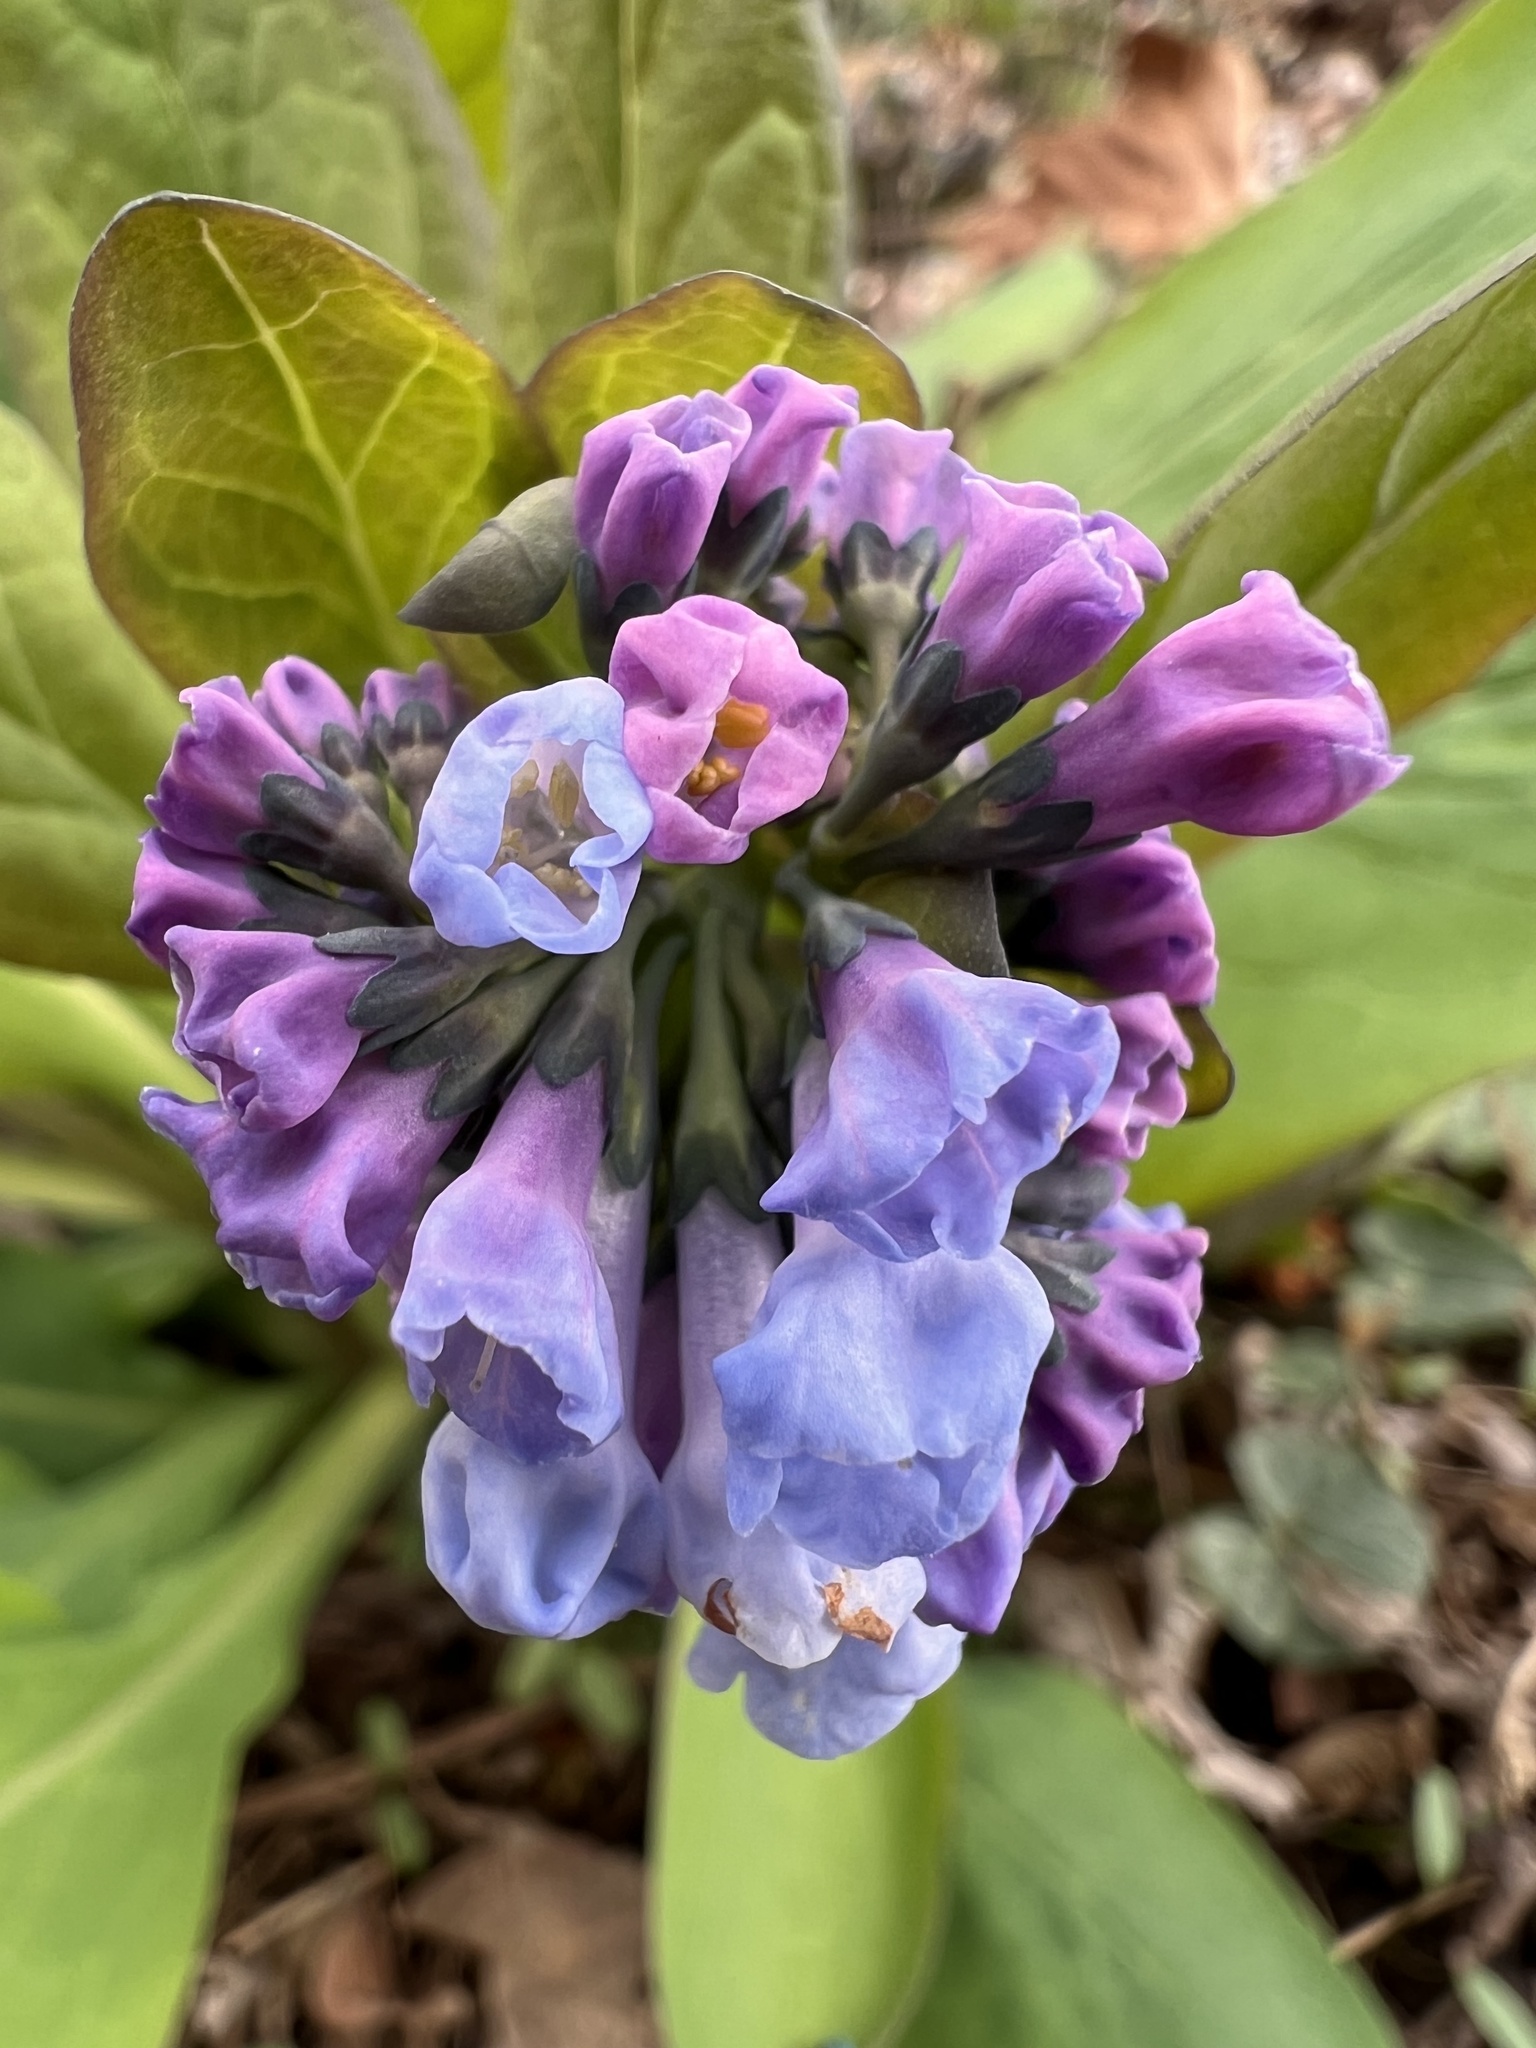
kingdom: Plantae
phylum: Tracheophyta
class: Magnoliopsida
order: Boraginales
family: Boraginaceae
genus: Mertensia
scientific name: Mertensia virginica
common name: Virginia bluebells
